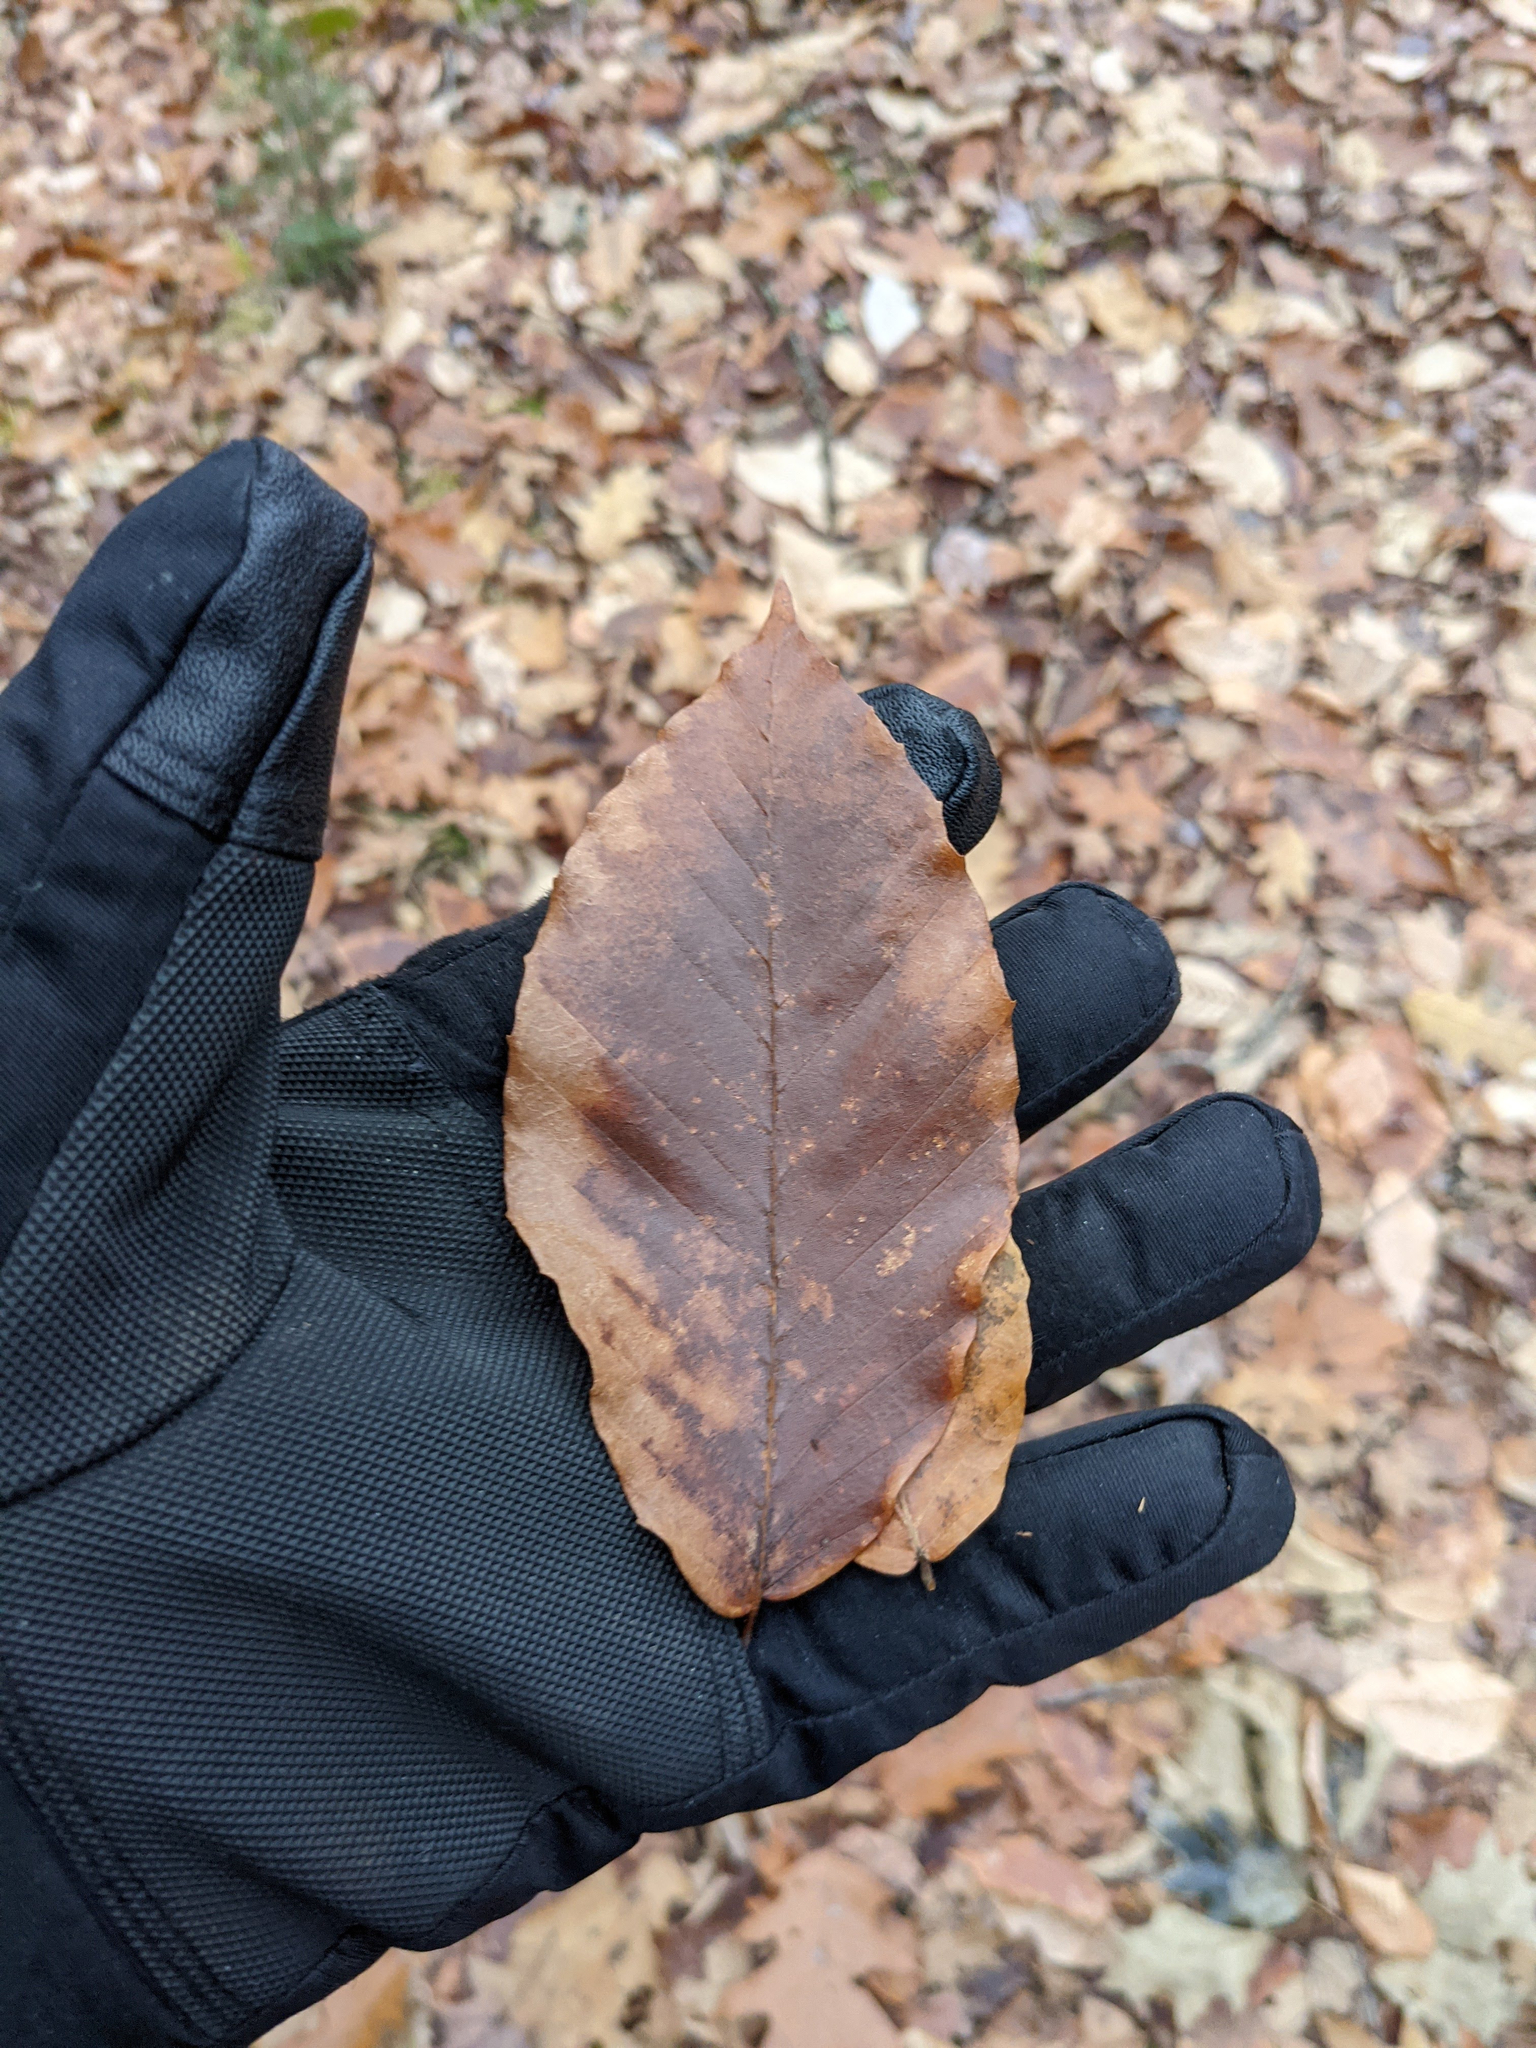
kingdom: Plantae
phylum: Tracheophyta
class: Magnoliopsida
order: Fagales
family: Fagaceae
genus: Fagus
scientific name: Fagus grandifolia
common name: American beech
